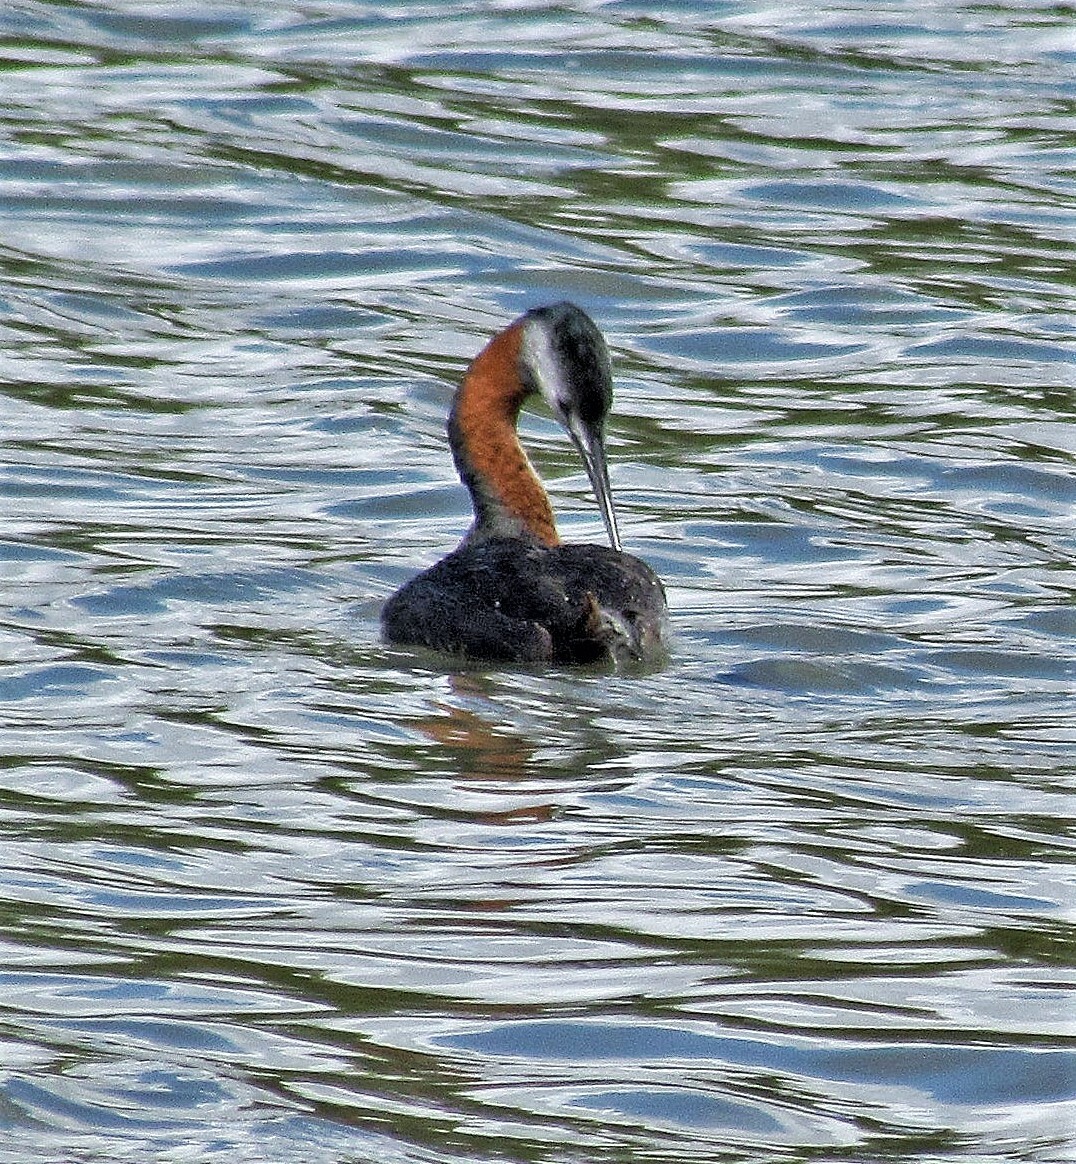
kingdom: Animalia
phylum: Chordata
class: Aves
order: Podicipediformes
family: Podicipedidae
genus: Podiceps
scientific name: Podiceps major
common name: Great grebe
